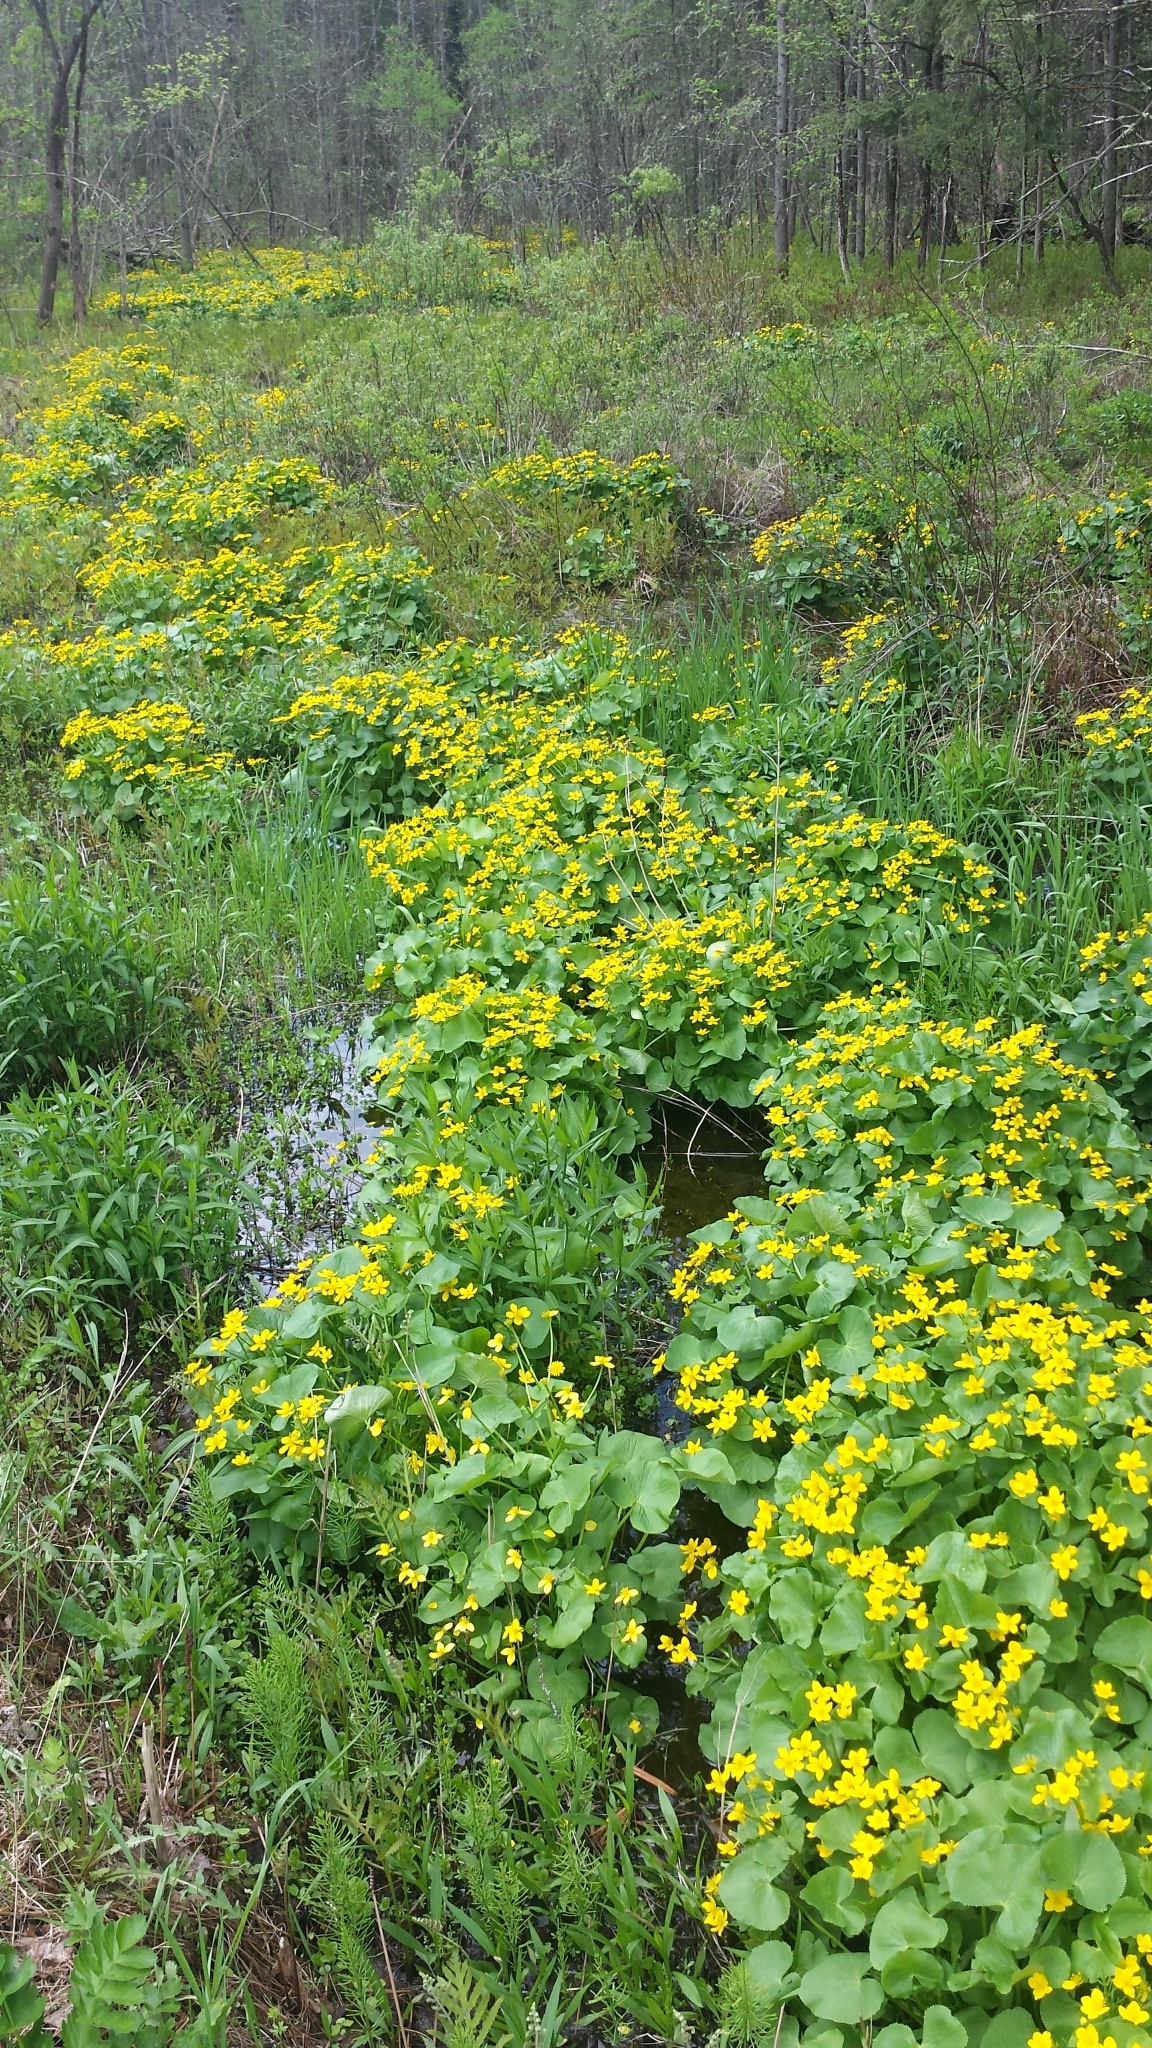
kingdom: Plantae
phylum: Tracheophyta
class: Magnoliopsida
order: Ranunculales
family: Ranunculaceae
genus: Caltha
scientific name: Caltha palustris
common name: Marsh marigold
